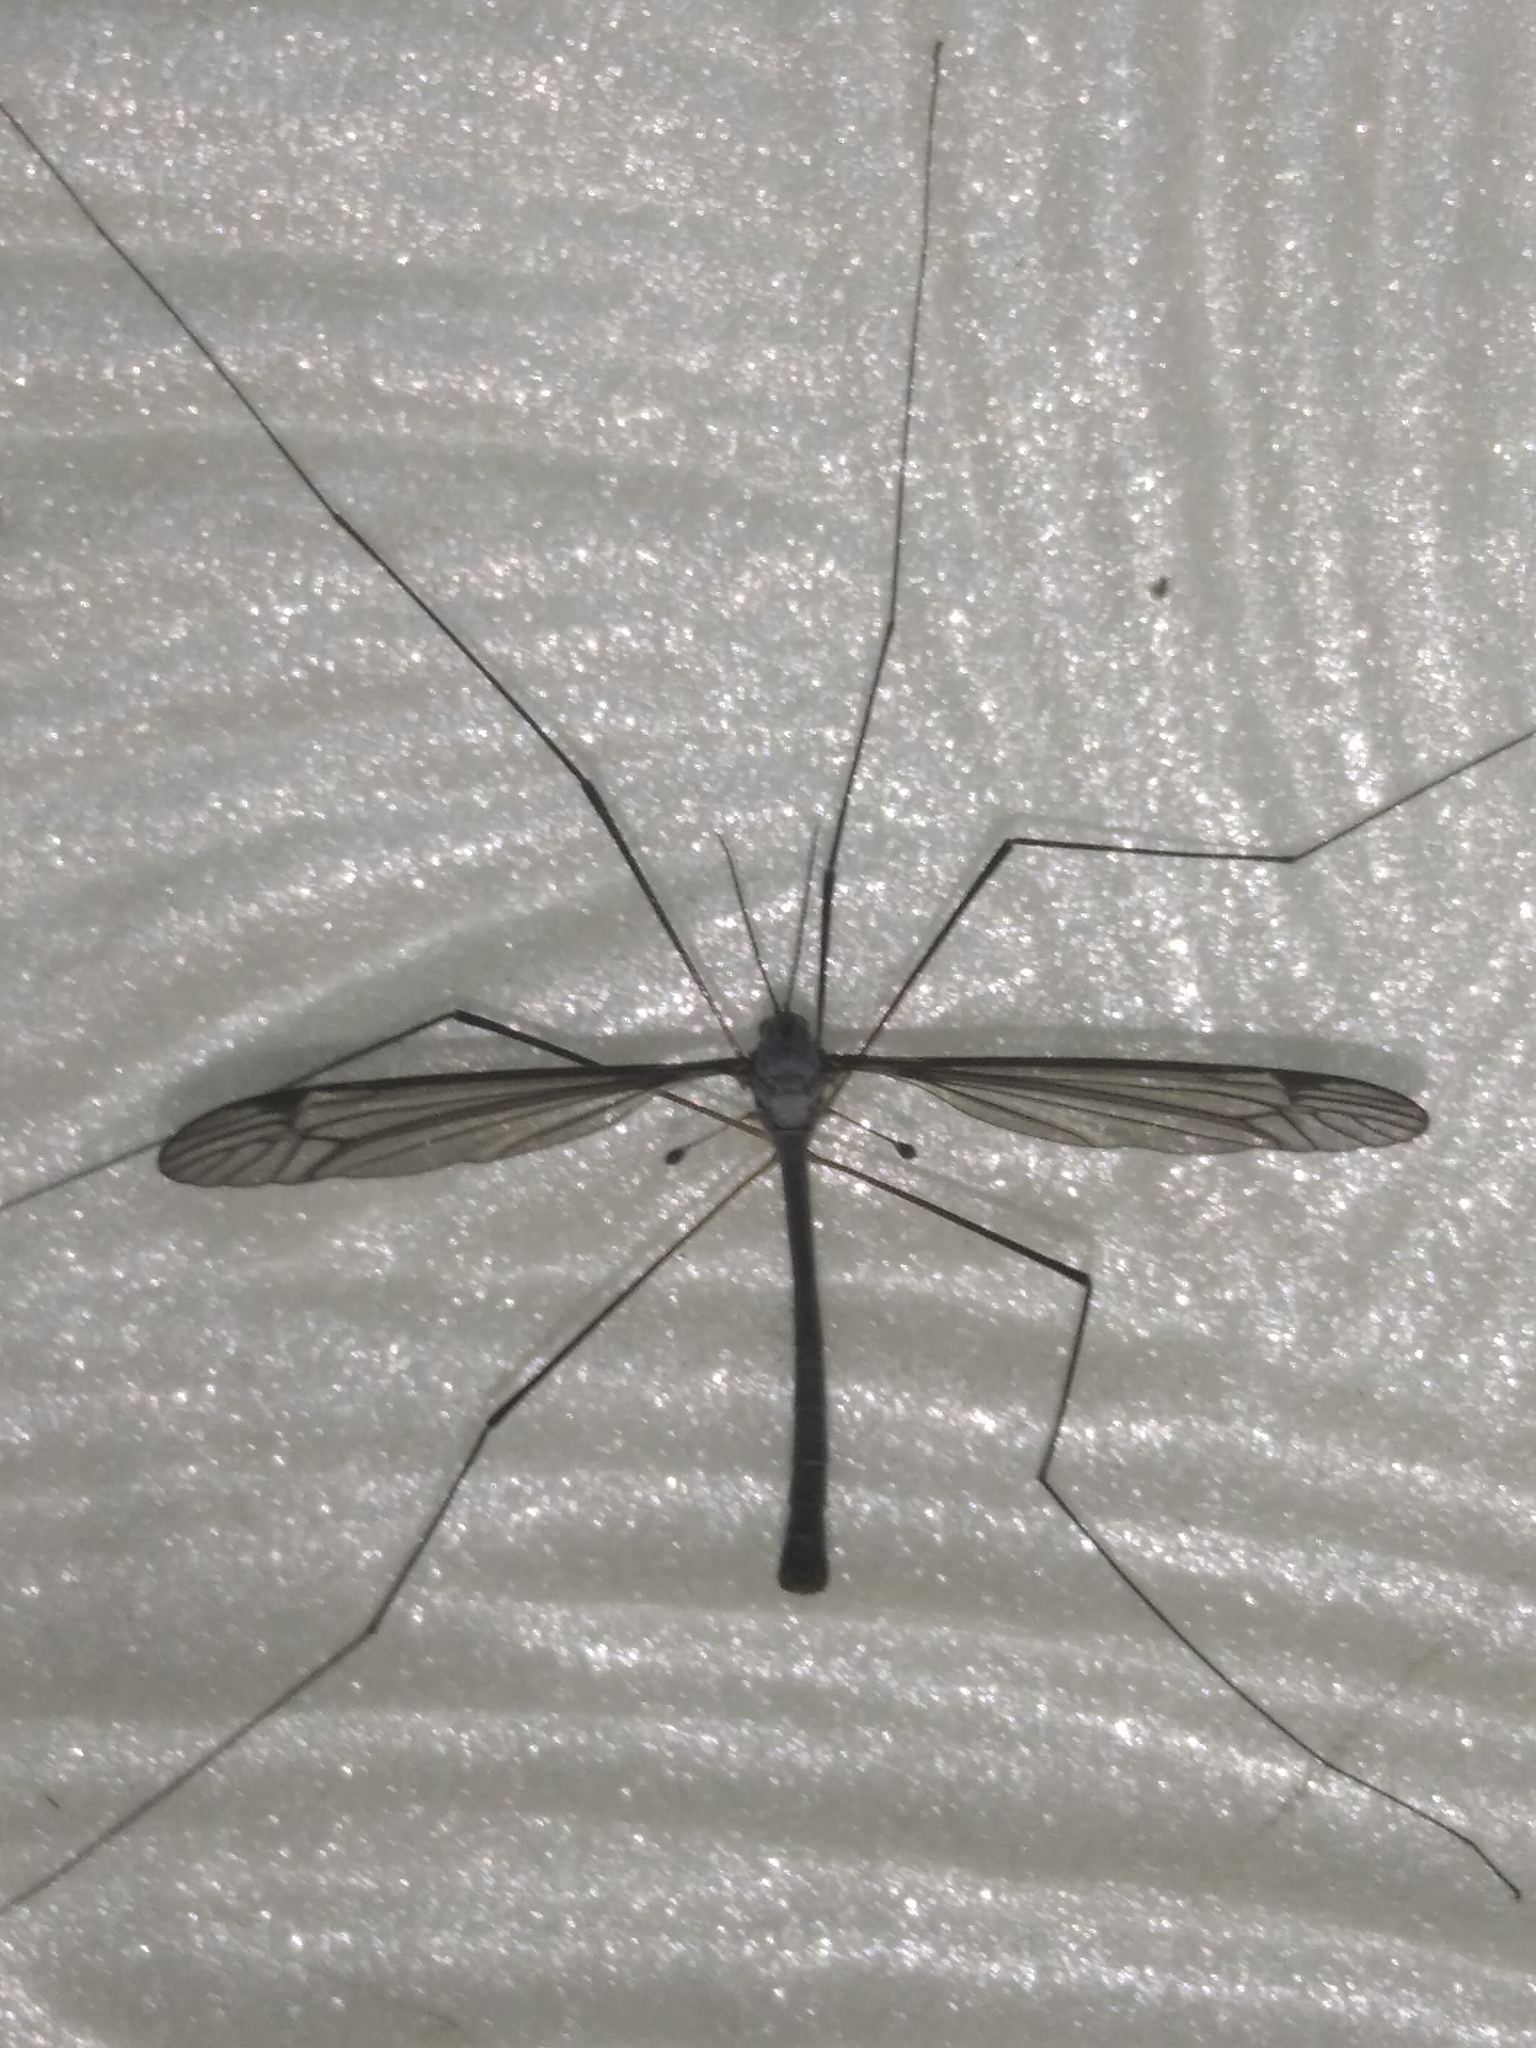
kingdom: Animalia
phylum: Arthropoda
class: Insecta
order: Diptera
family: Tipulidae
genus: Tipula
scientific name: Tipula
